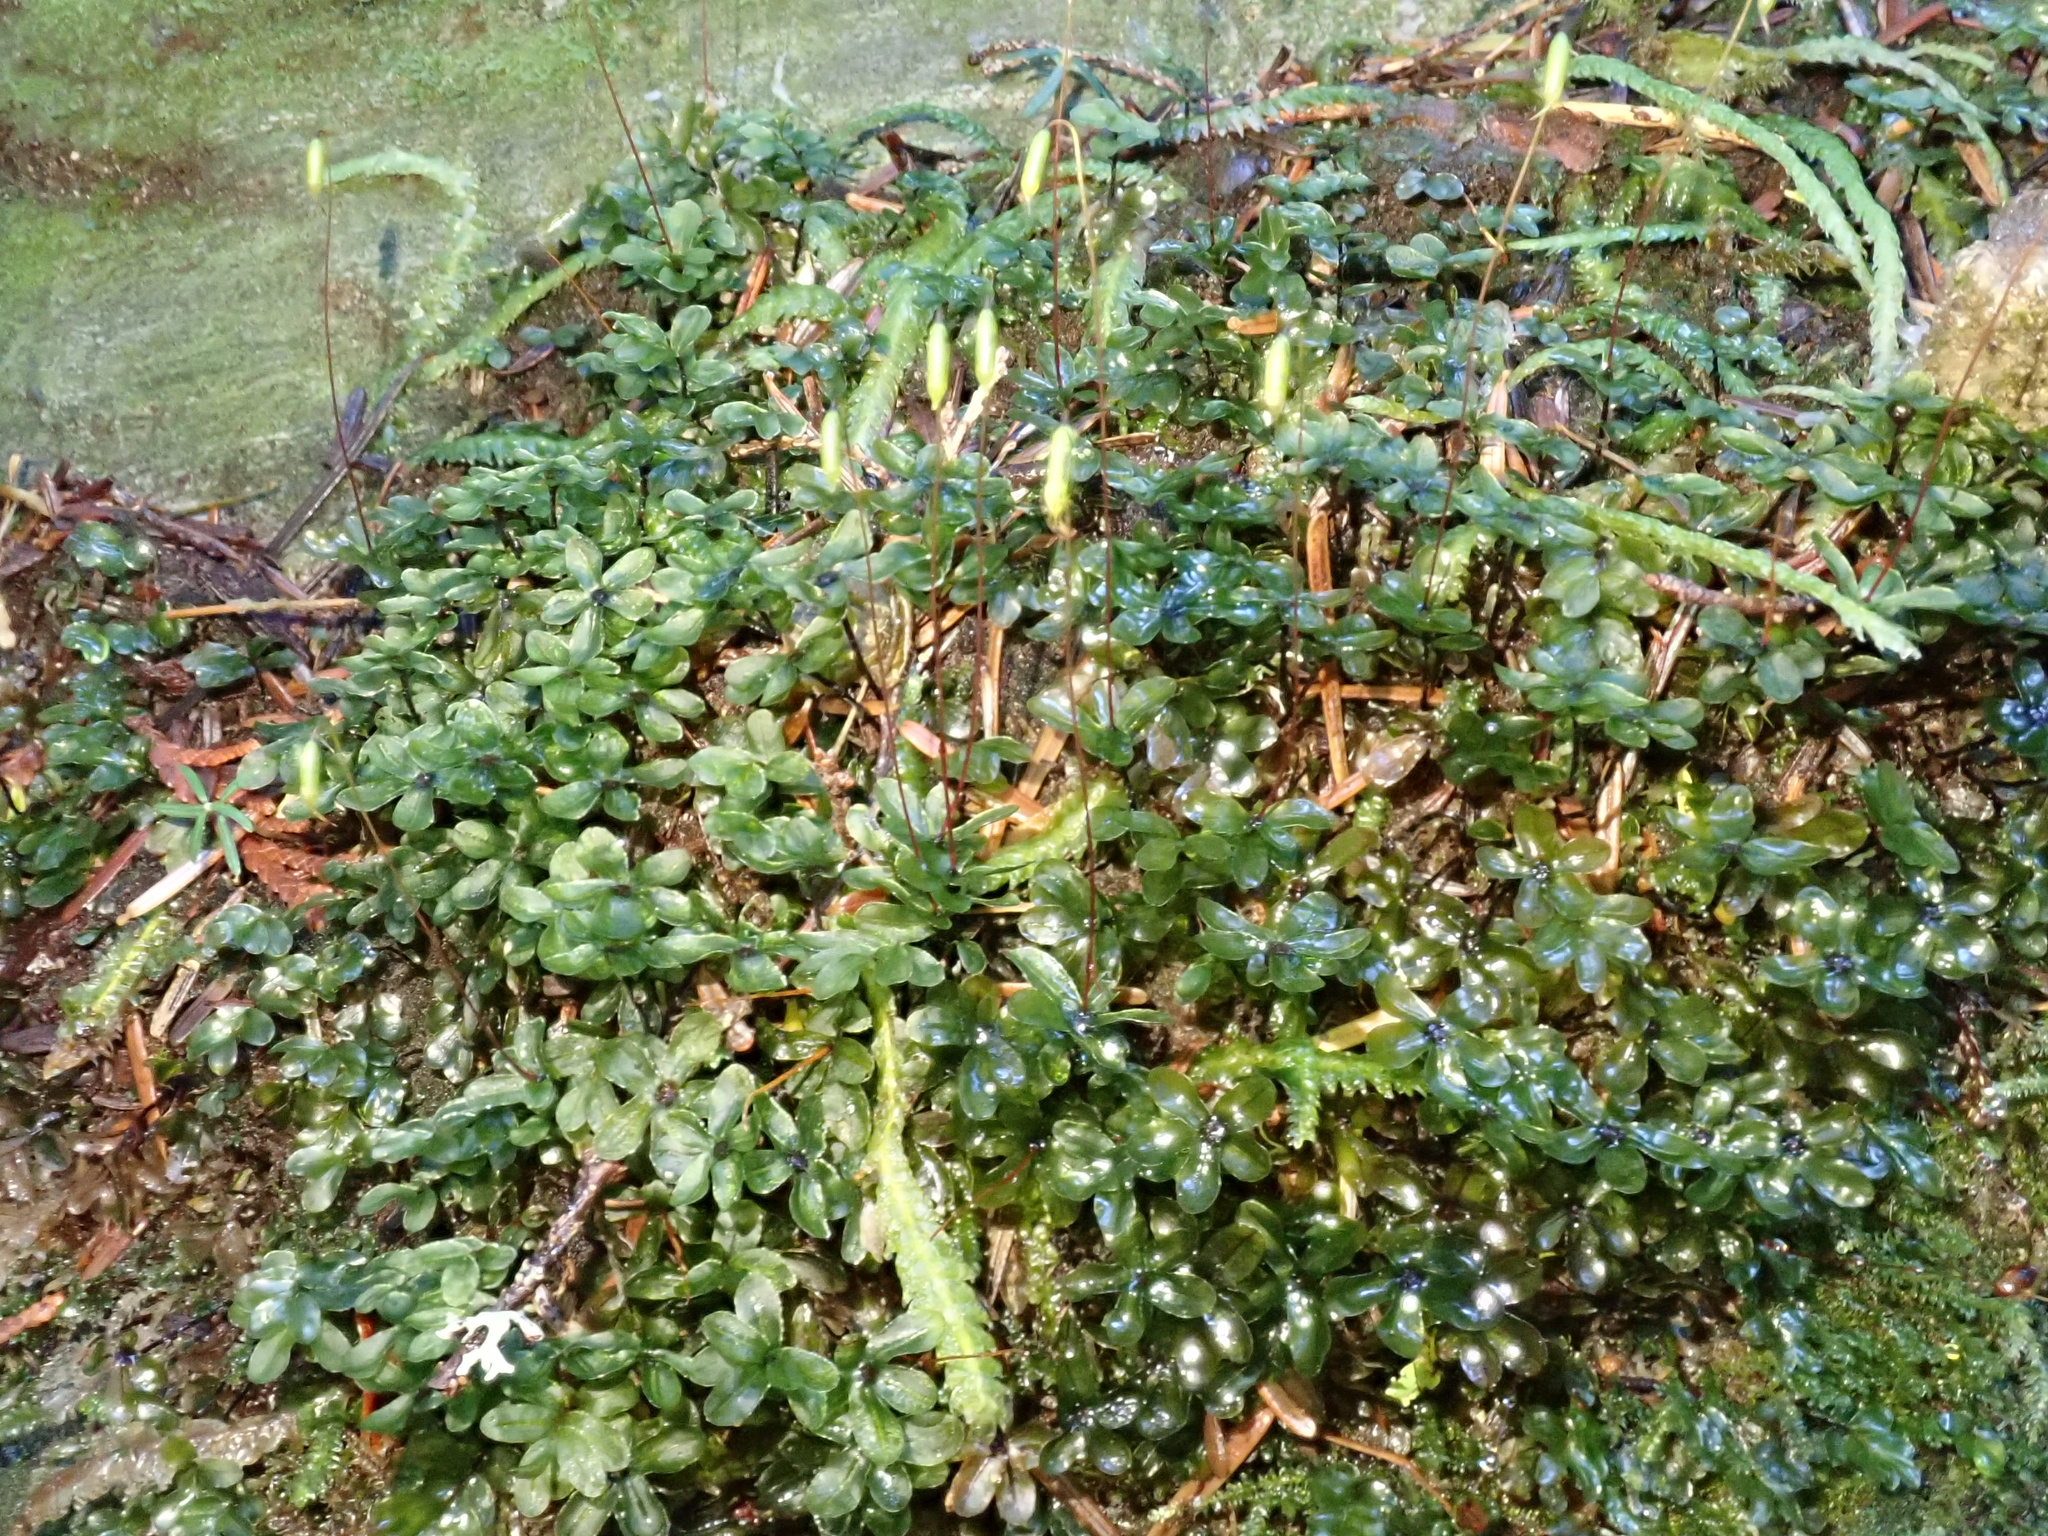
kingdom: Plantae
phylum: Bryophyta
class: Bryopsida
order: Bryales
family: Mniaceae
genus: Rhizomnium
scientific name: Rhizomnium glabrescens
